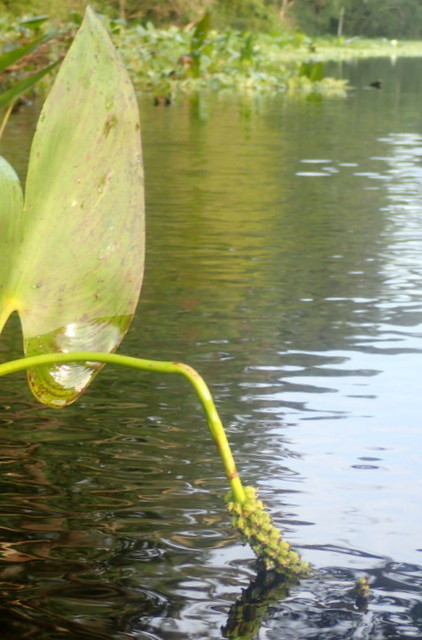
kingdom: Plantae
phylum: Tracheophyta
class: Liliopsida
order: Commelinales
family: Pontederiaceae
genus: Pontederia
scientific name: Pontederia cordata
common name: Pickerelweed
